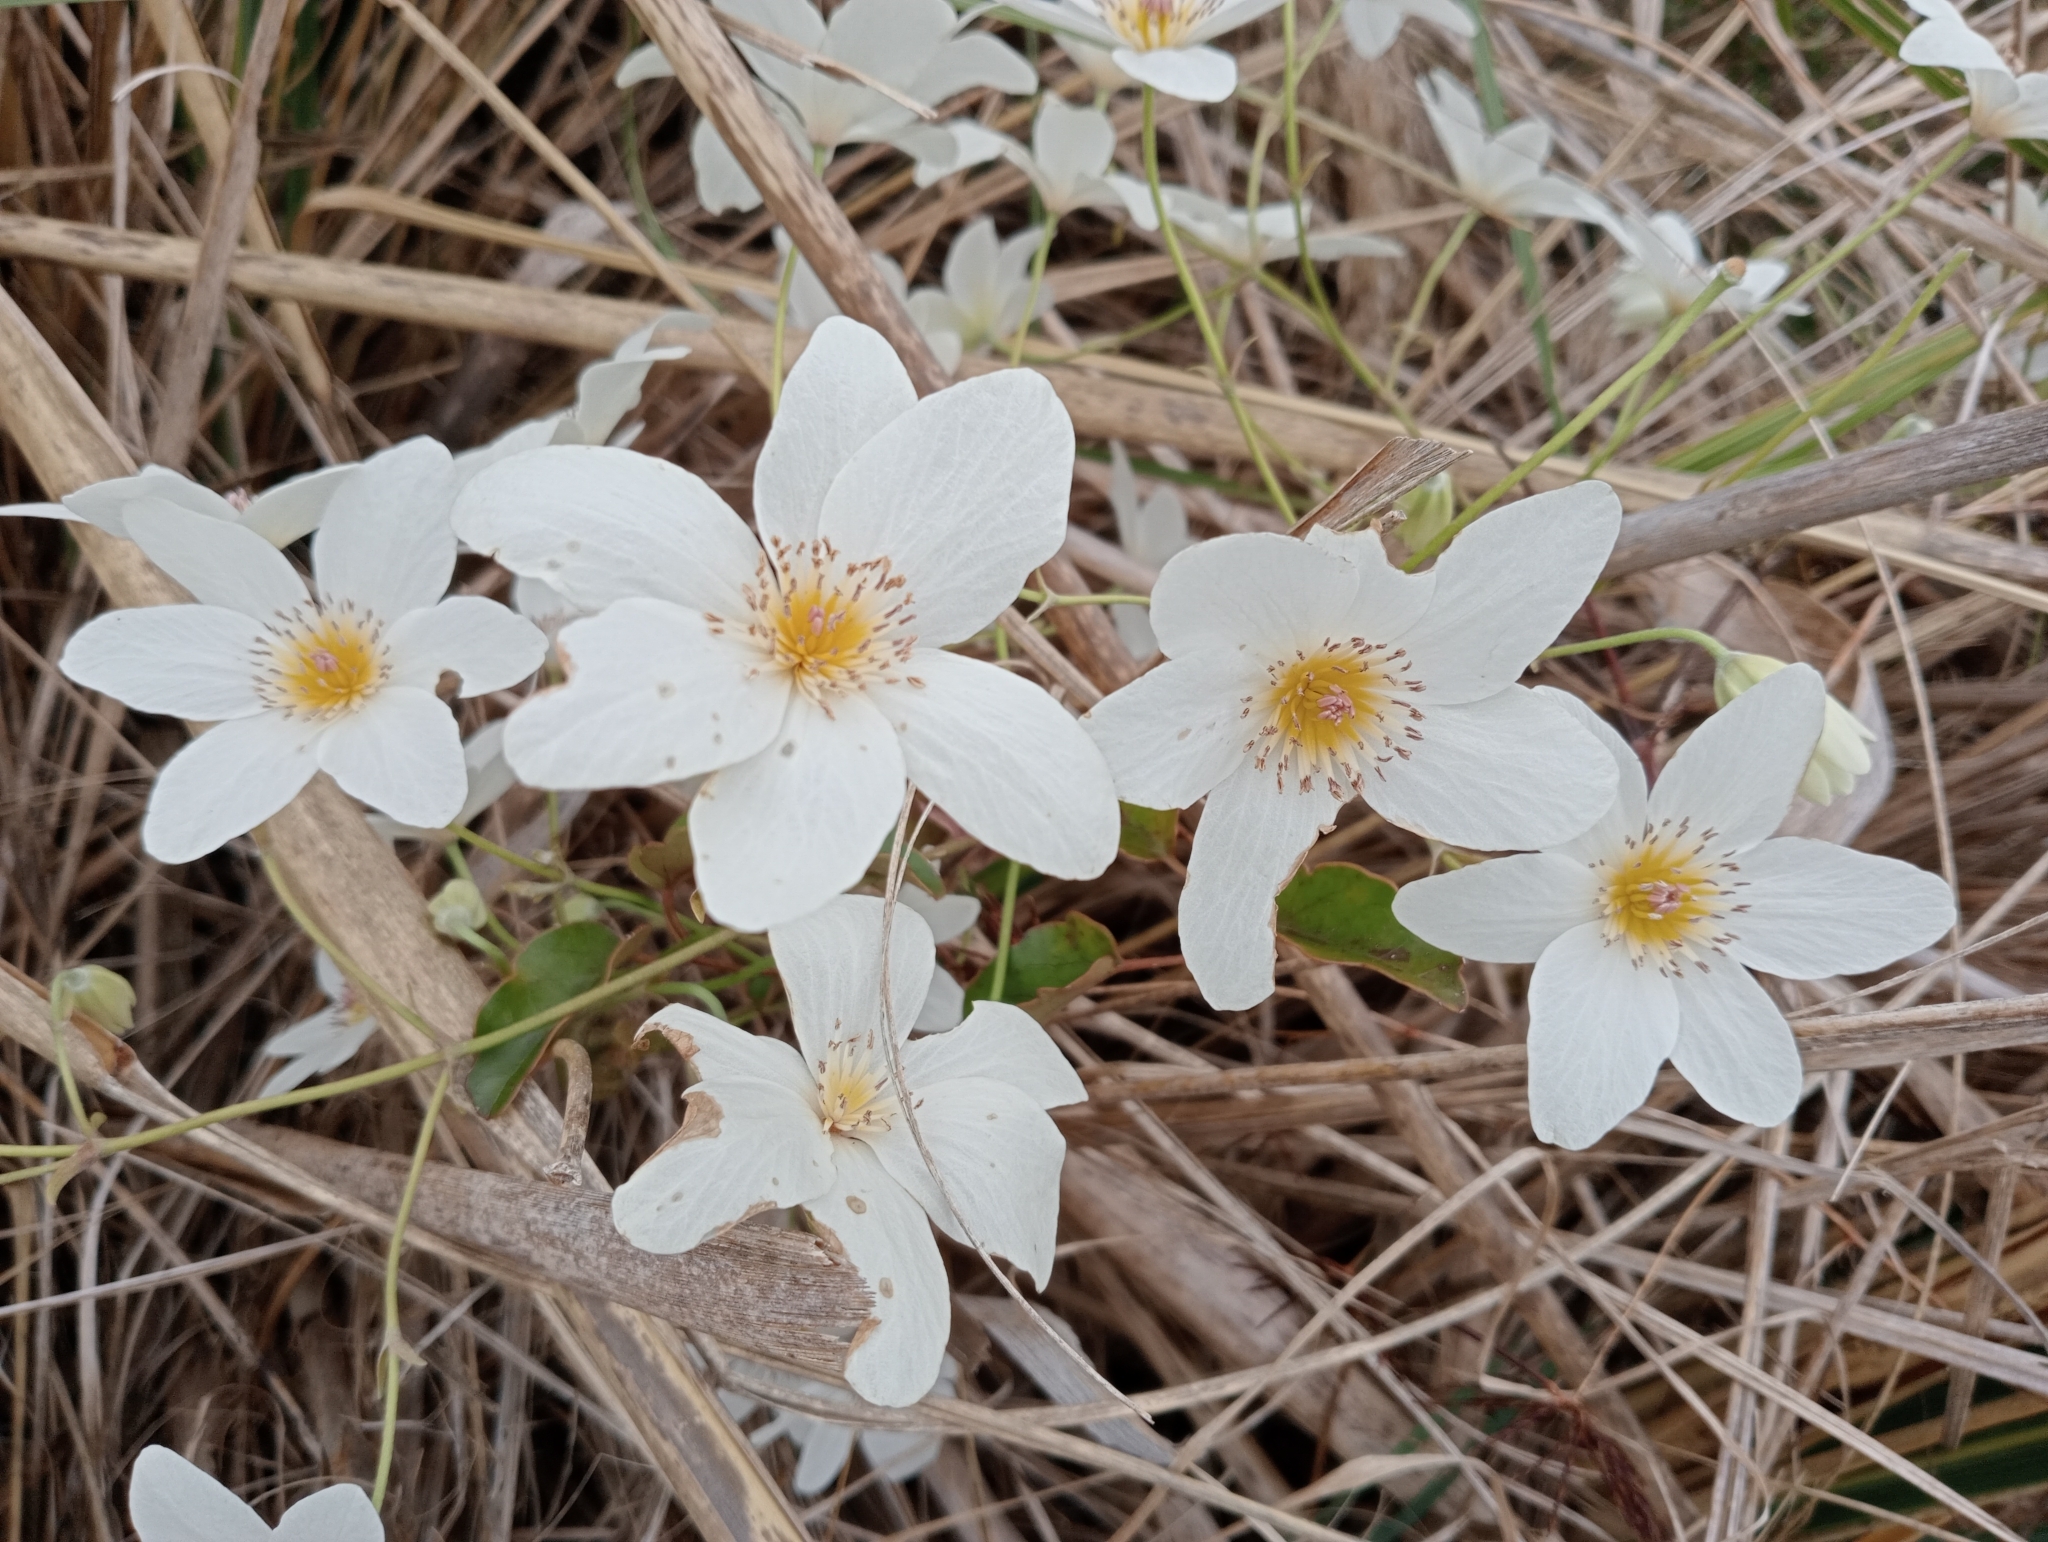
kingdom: Plantae
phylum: Tracheophyta
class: Magnoliopsida
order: Ranunculales
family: Ranunculaceae
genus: Clematis
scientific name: Clematis paniculata
